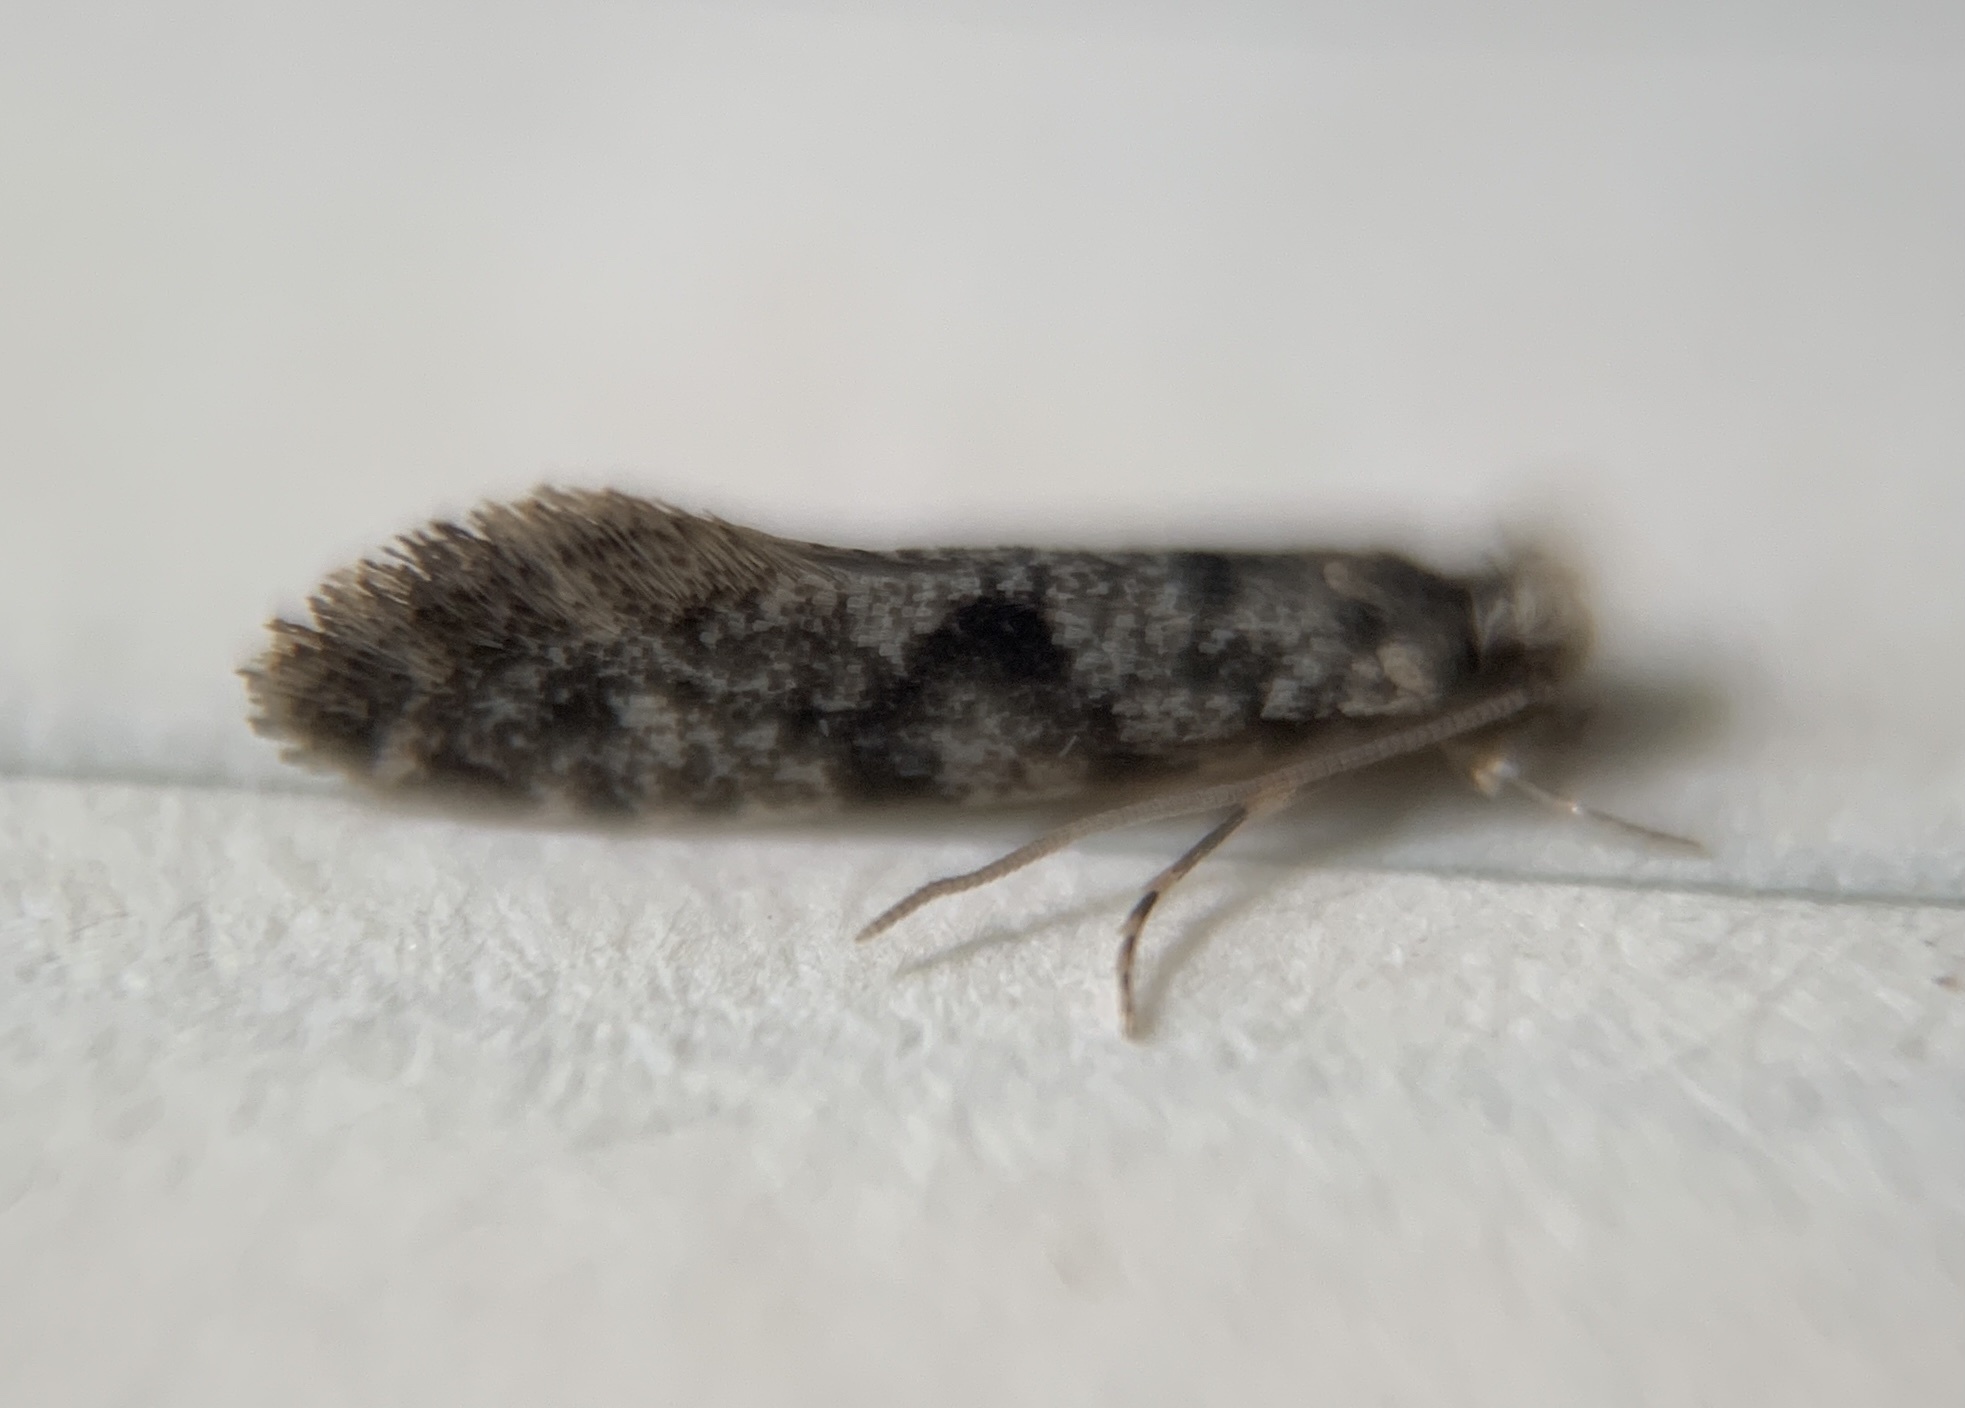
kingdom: Animalia
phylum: Arthropoda
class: Insecta
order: Lepidoptera
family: Tineidae
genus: Nemapogon
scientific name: Nemapogon granella
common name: European grain moth
